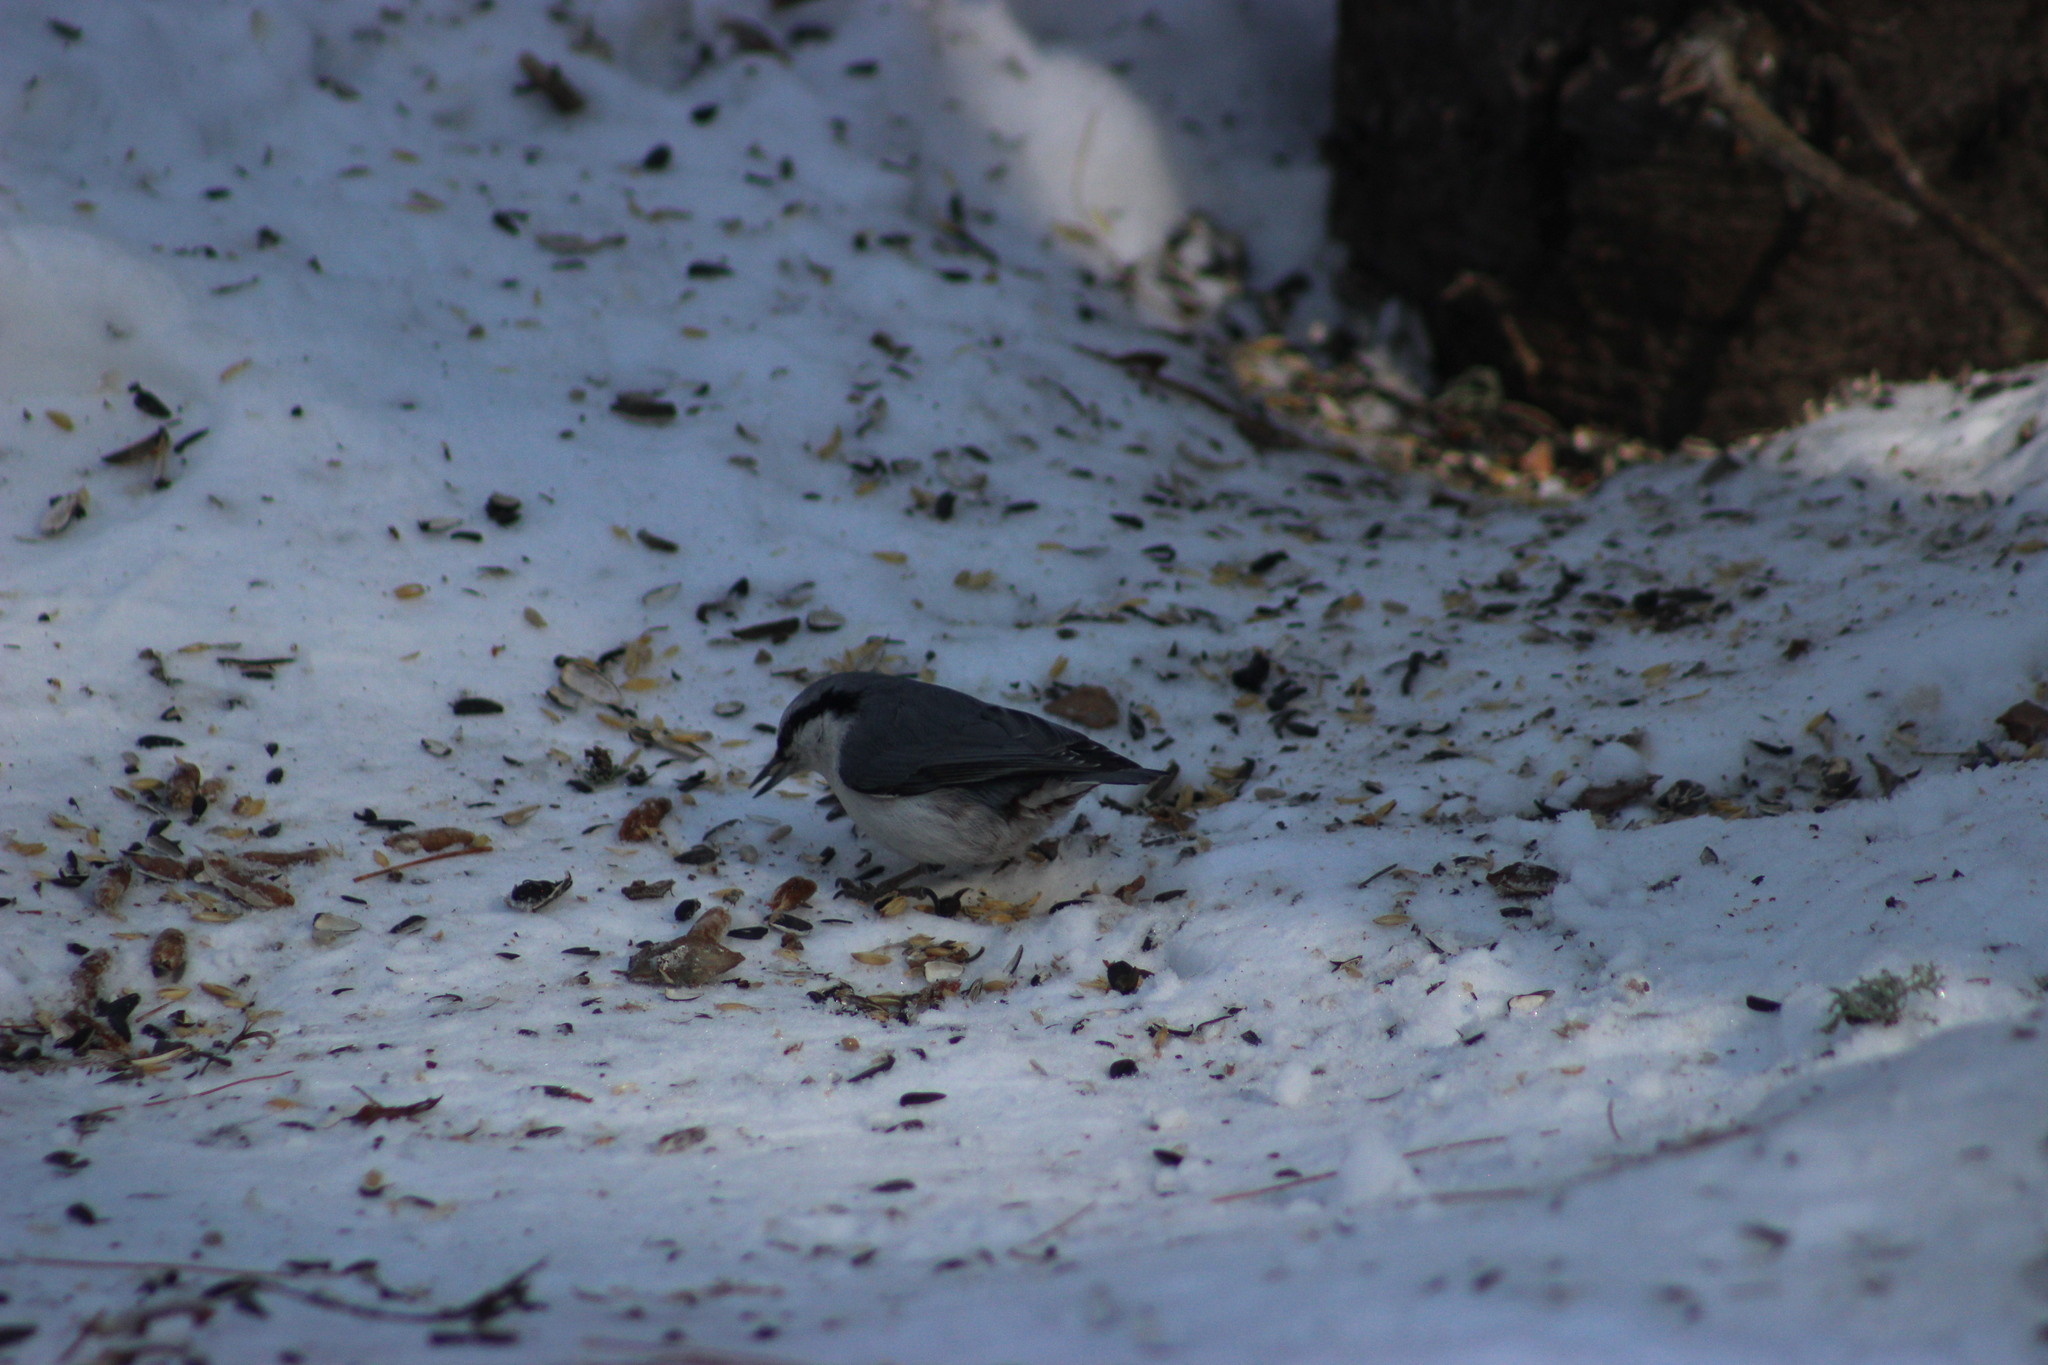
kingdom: Animalia
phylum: Chordata
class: Aves
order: Passeriformes
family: Sittidae
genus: Sitta
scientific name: Sitta europaea
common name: Eurasian nuthatch
